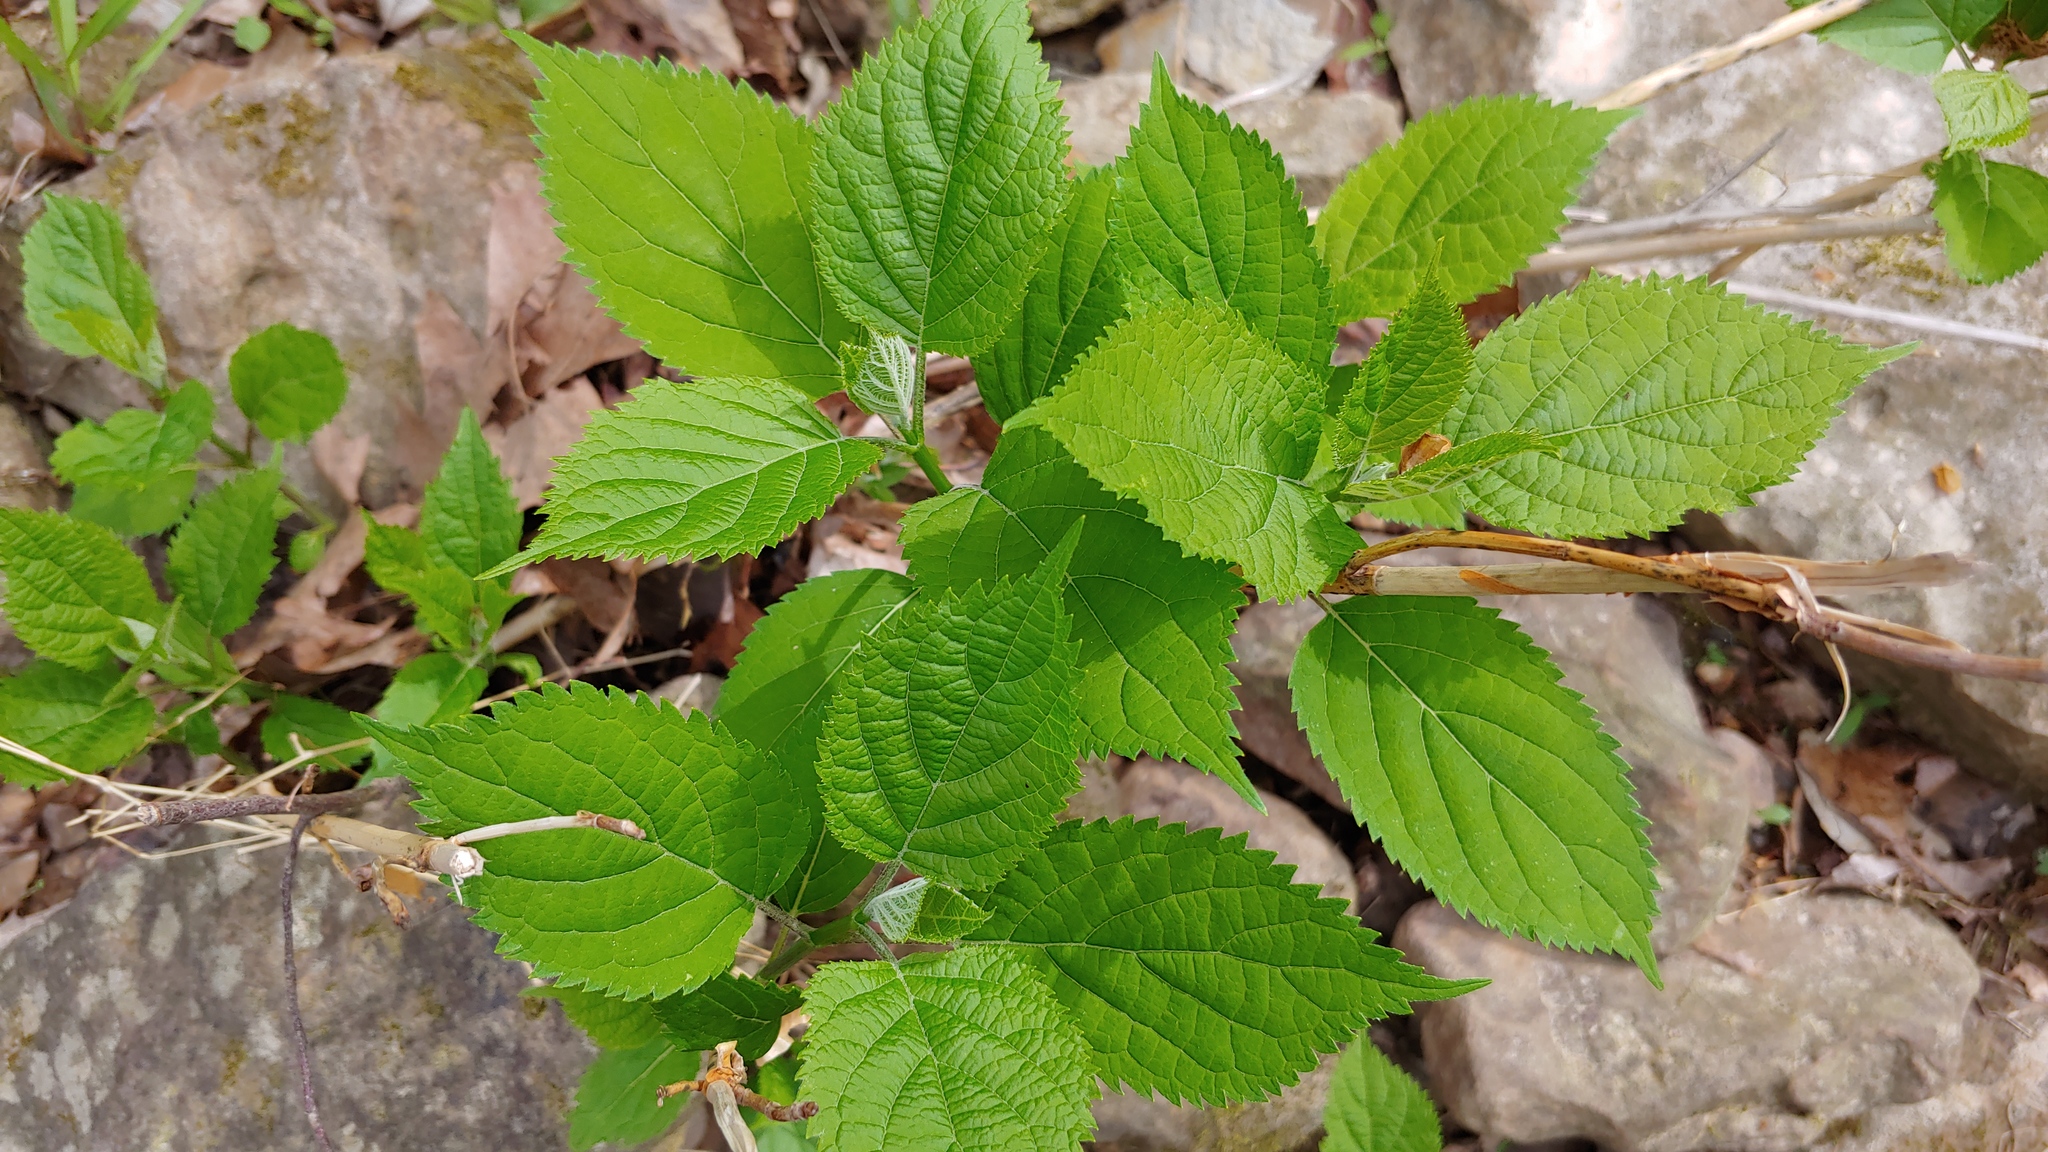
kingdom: Plantae
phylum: Tracheophyta
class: Magnoliopsida
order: Cornales
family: Hydrangeaceae
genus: Hydrangea
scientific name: Hydrangea arborescens
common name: Sevenbark
